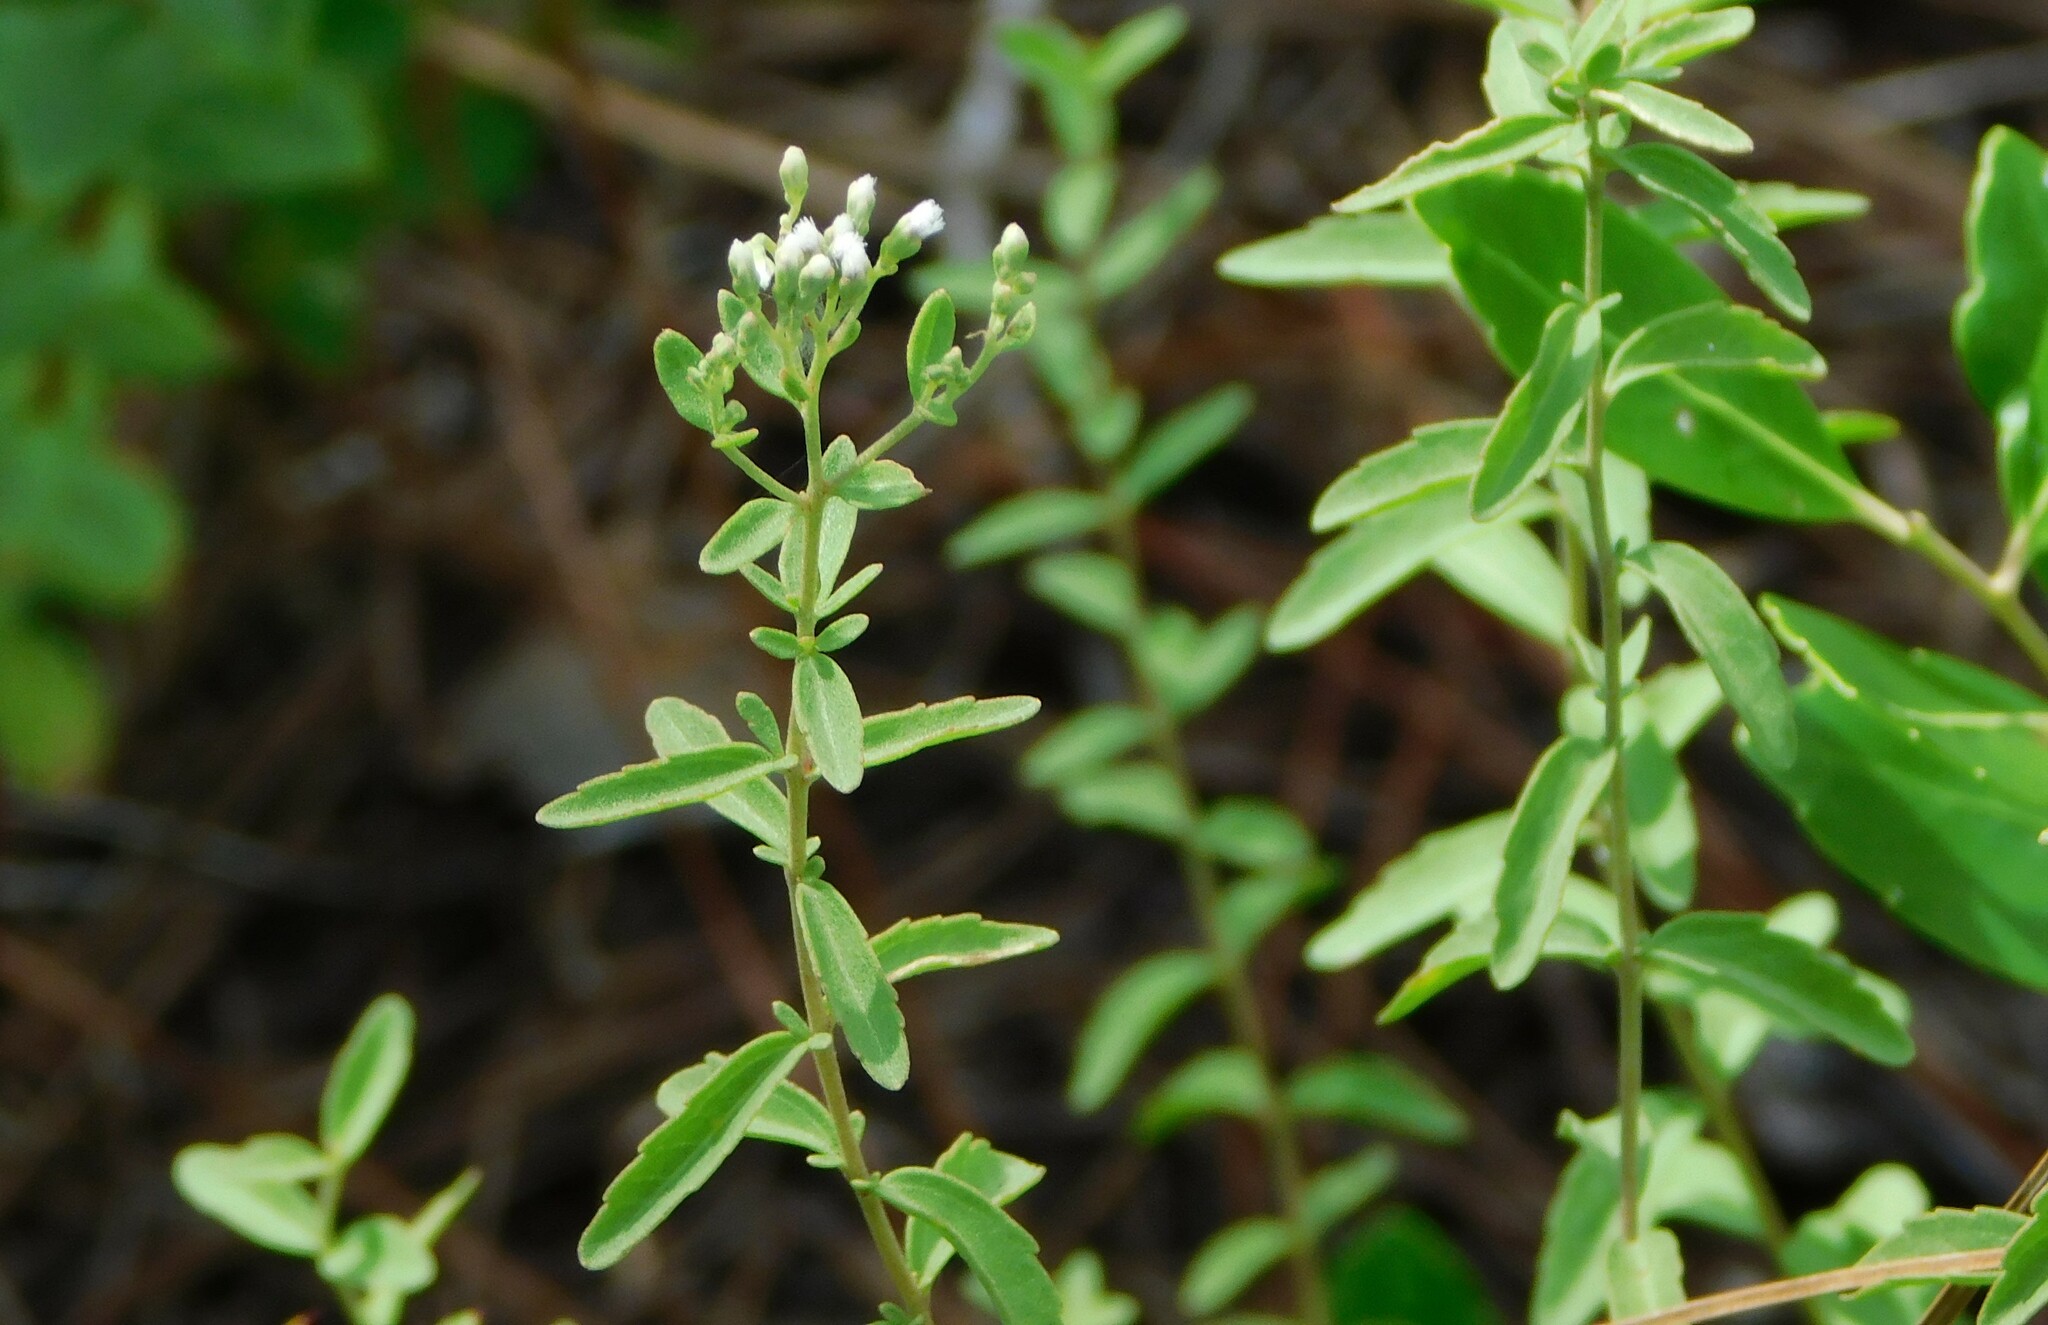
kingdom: Plantae
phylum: Tracheophyta
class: Magnoliopsida
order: Asterales
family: Asteraceae
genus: Eupatorium
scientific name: Eupatorium mohrii
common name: Mohr's thoroughwort
